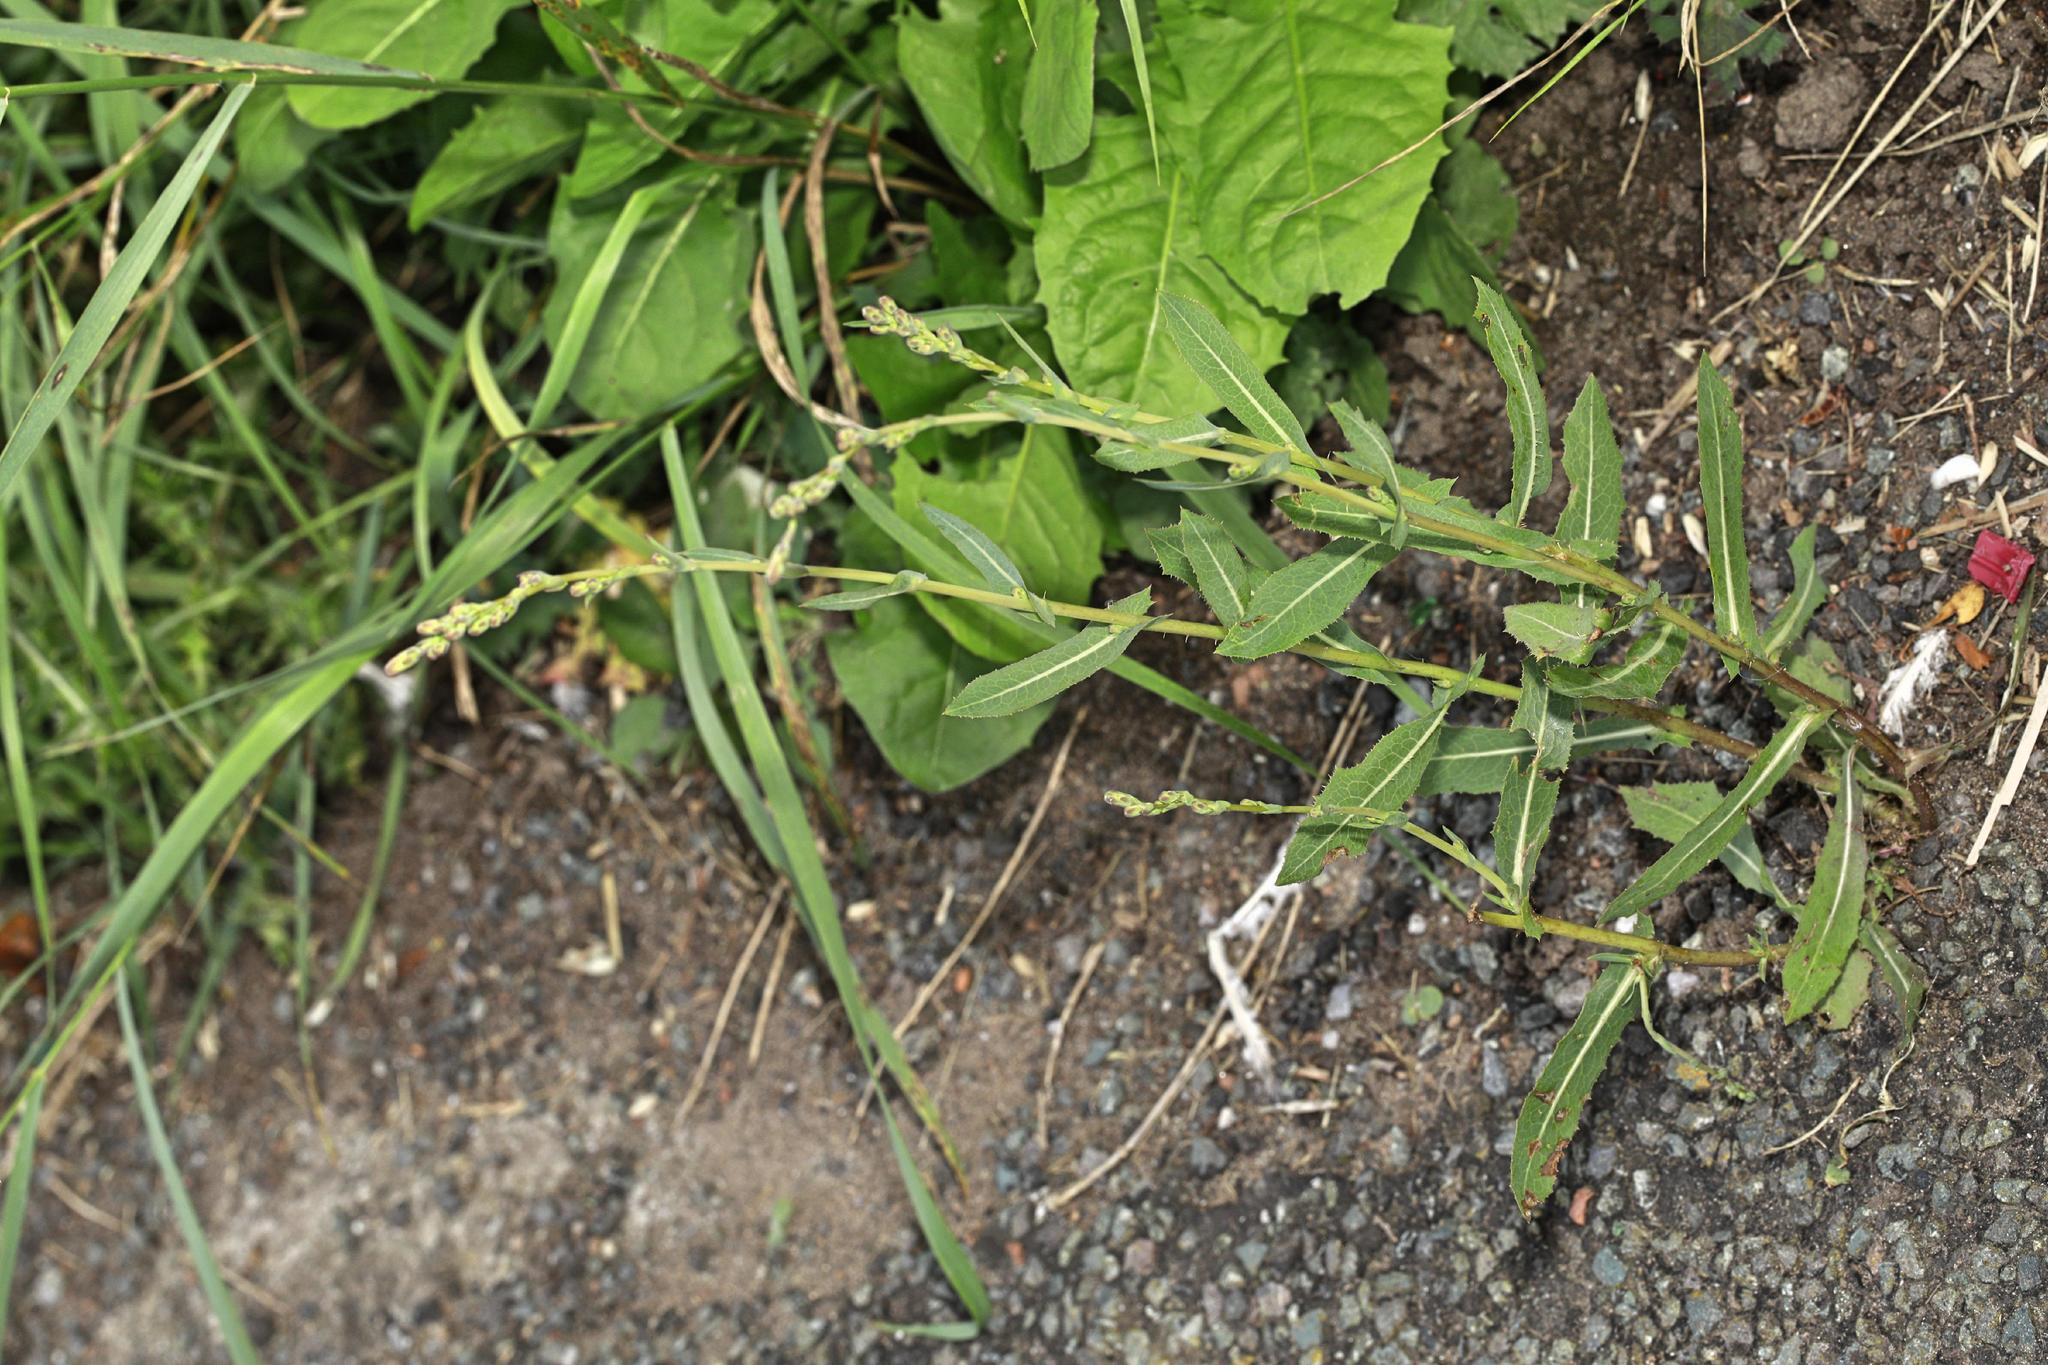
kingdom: Plantae
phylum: Tracheophyta
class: Magnoliopsida
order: Asterales
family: Asteraceae
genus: Lactuca
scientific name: Lactuca serriola
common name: Prickly lettuce
